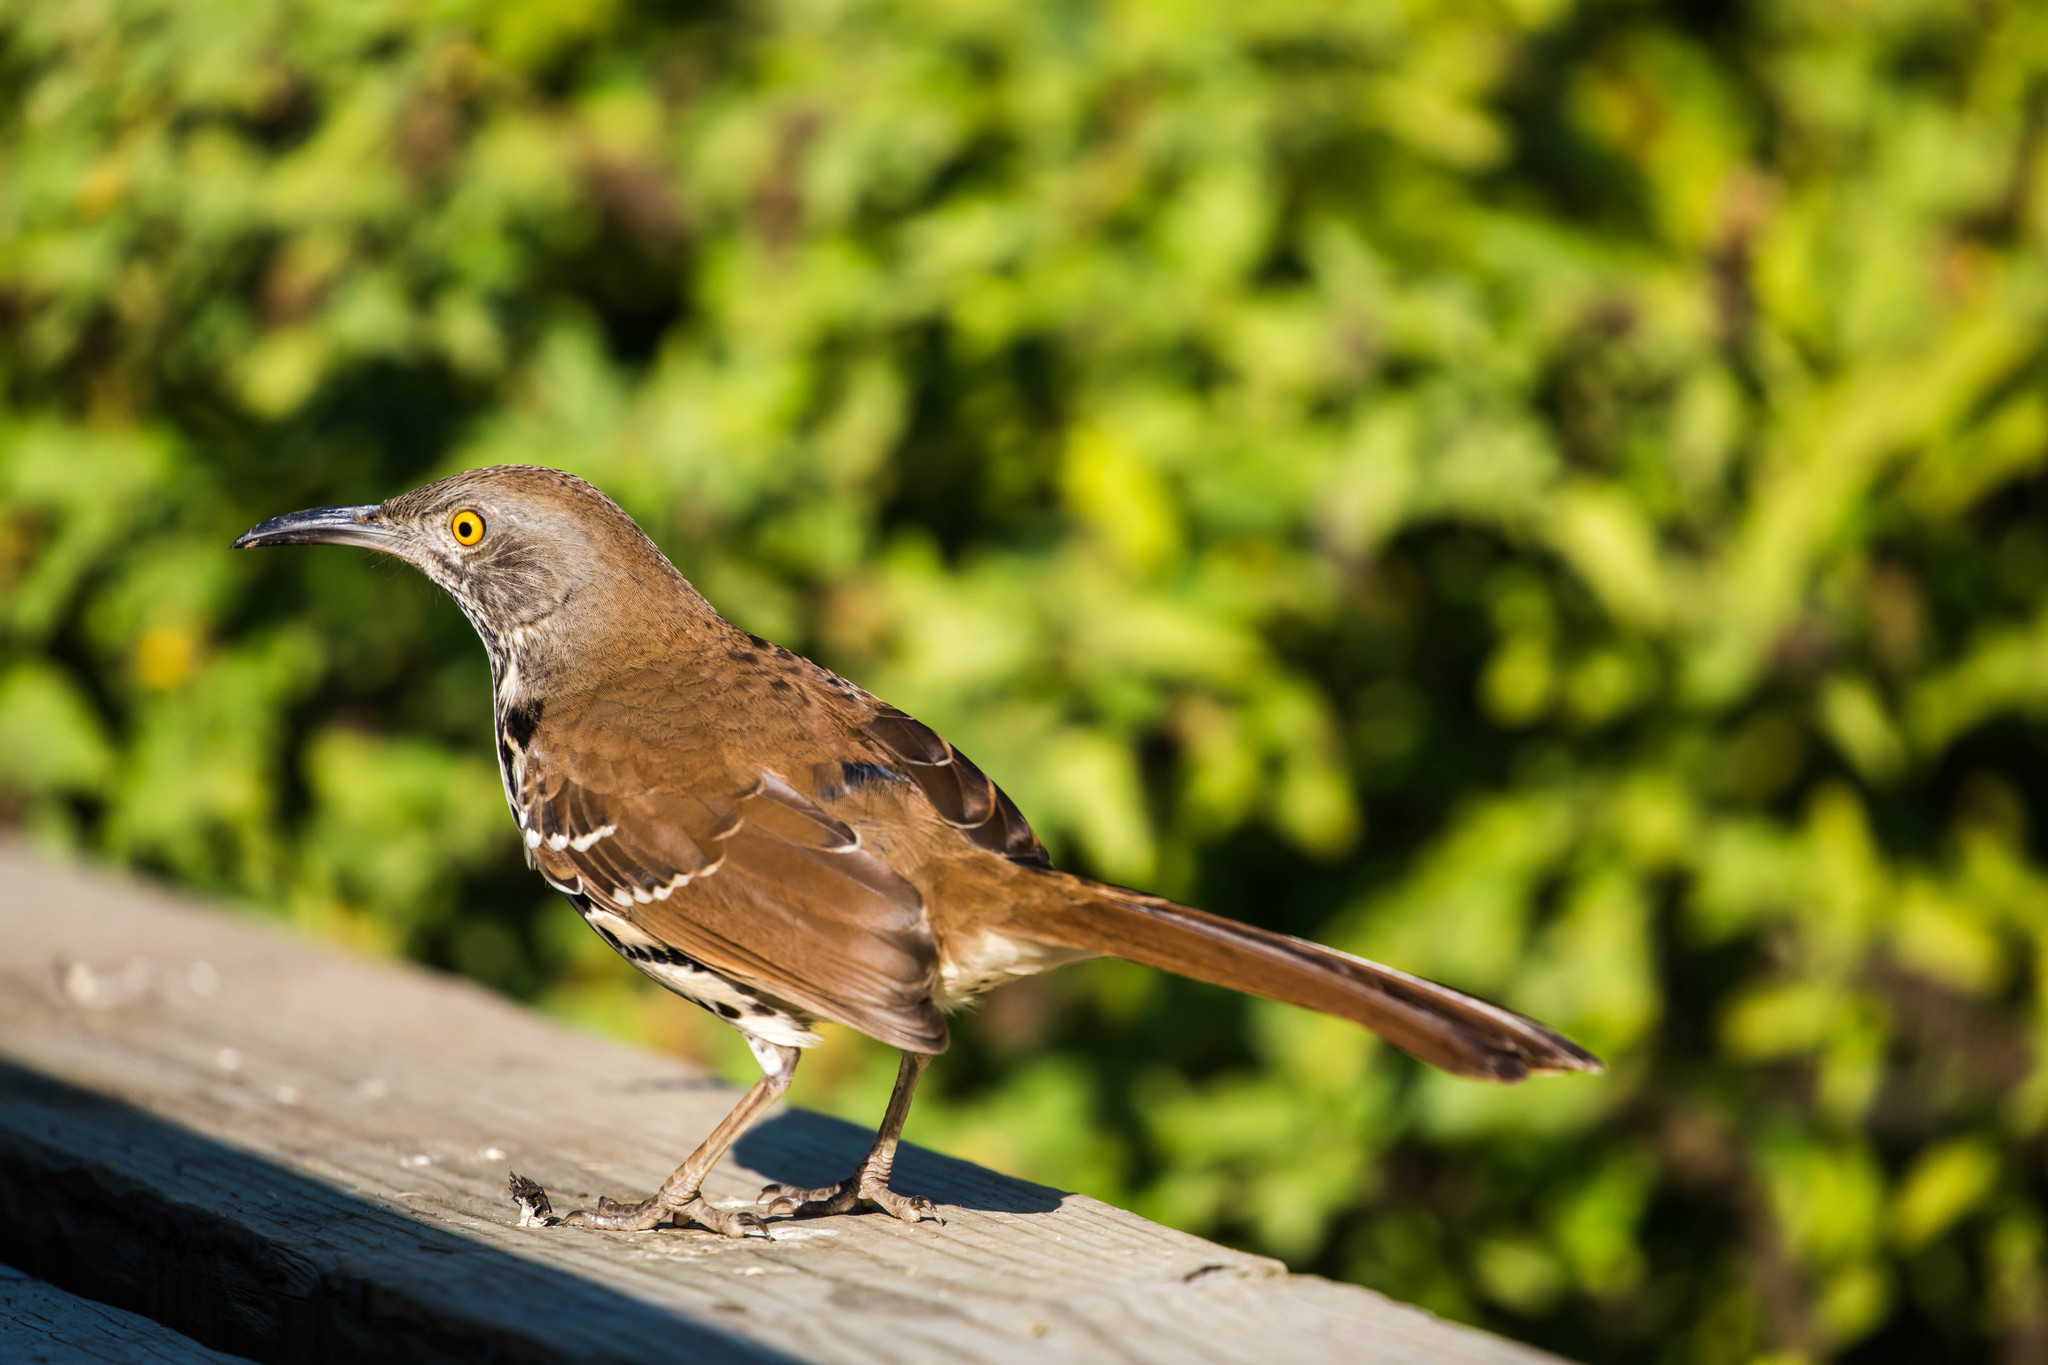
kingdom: Animalia
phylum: Chordata
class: Aves
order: Passeriformes
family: Mimidae
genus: Toxostoma
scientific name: Toxostoma longirostre
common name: Long-billed thrasher
